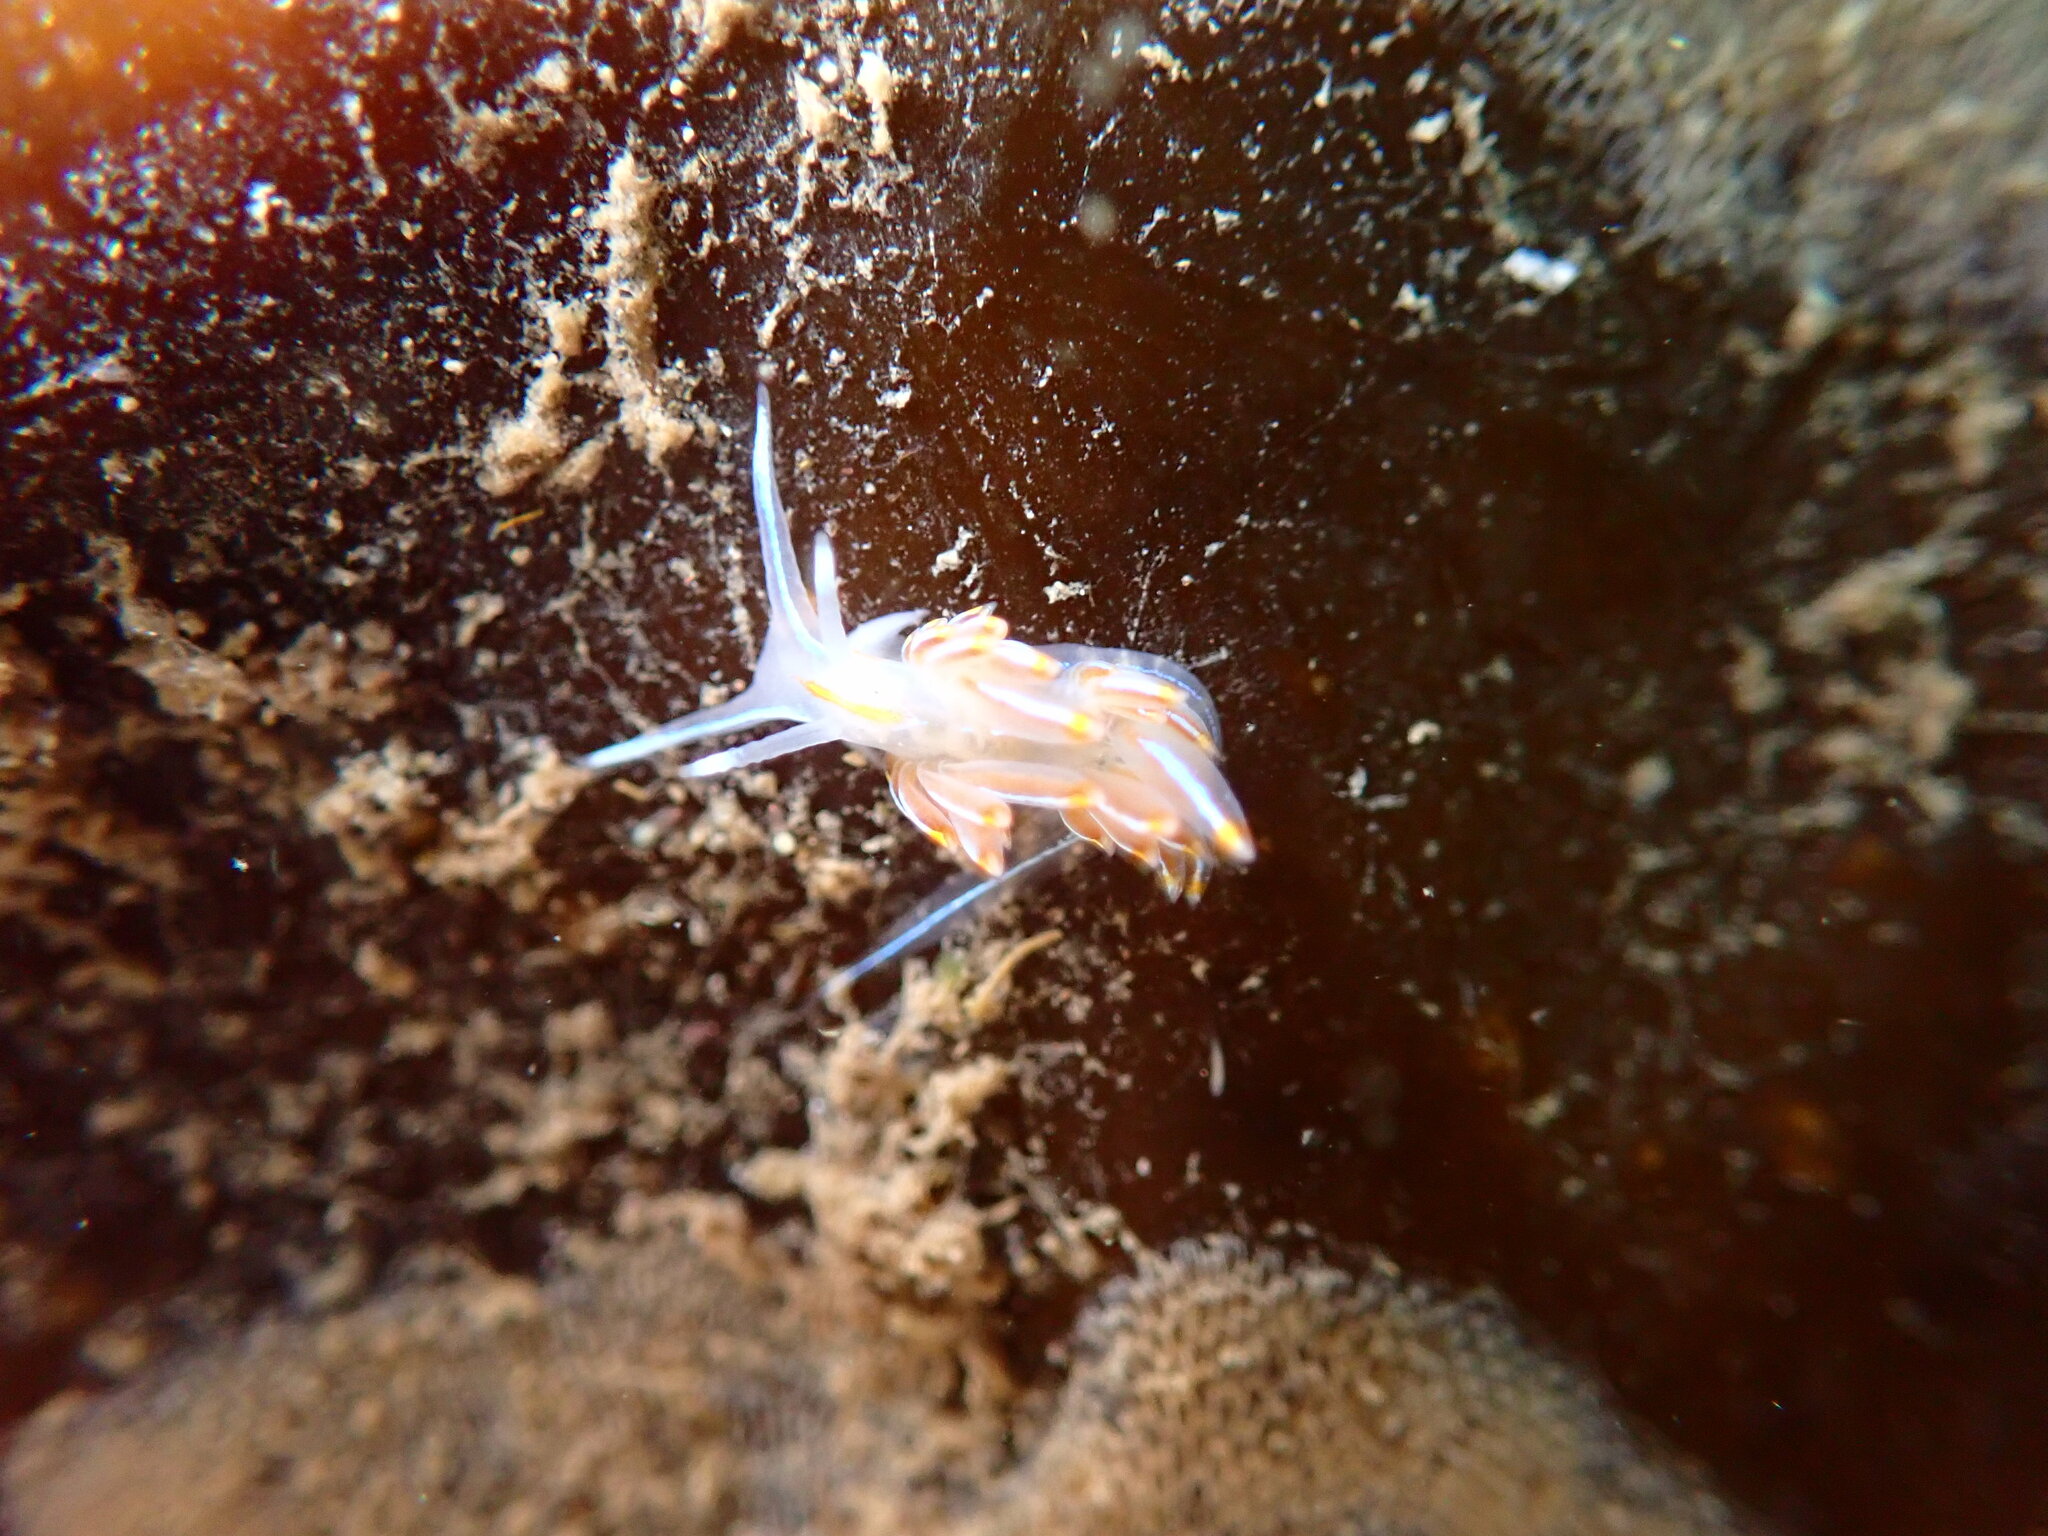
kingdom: Animalia
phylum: Mollusca
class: Gastropoda
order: Nudibranchia
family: Myrrhinidae
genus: Hermissenda
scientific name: Hermissenda crassicornis
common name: Hermissenda
